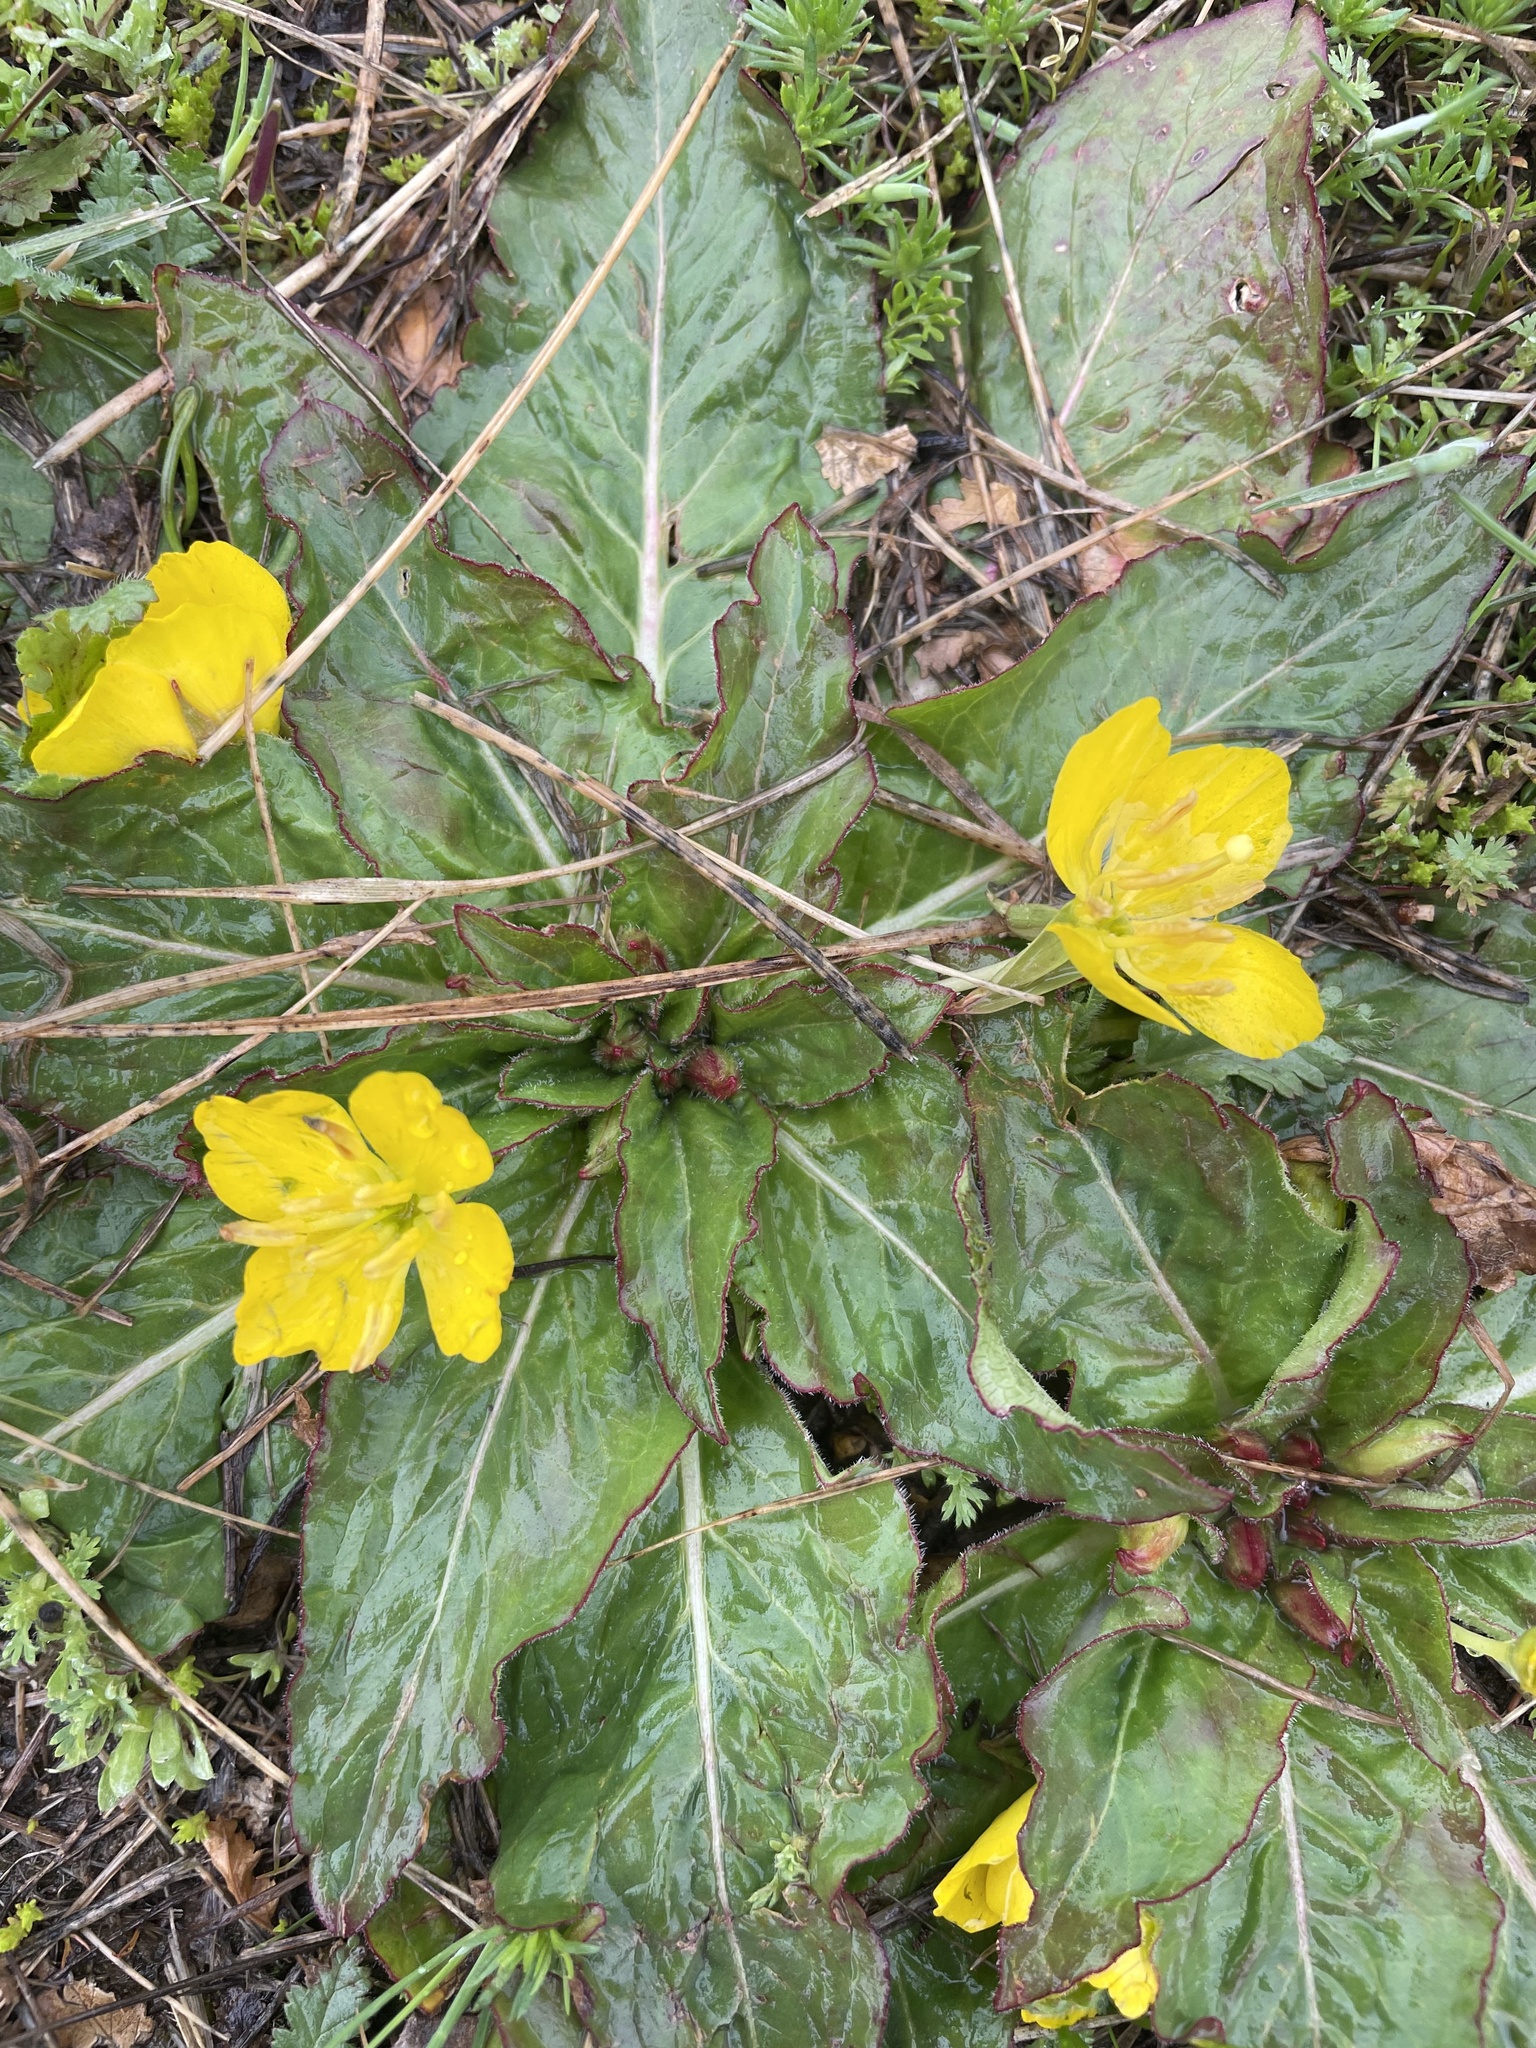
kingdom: Plantae
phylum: Tracheophyta
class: Magnoliopsida
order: Myrtales
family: Onagraceae
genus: Taraxia
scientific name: Taraxia ovata
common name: Goldeneggs
